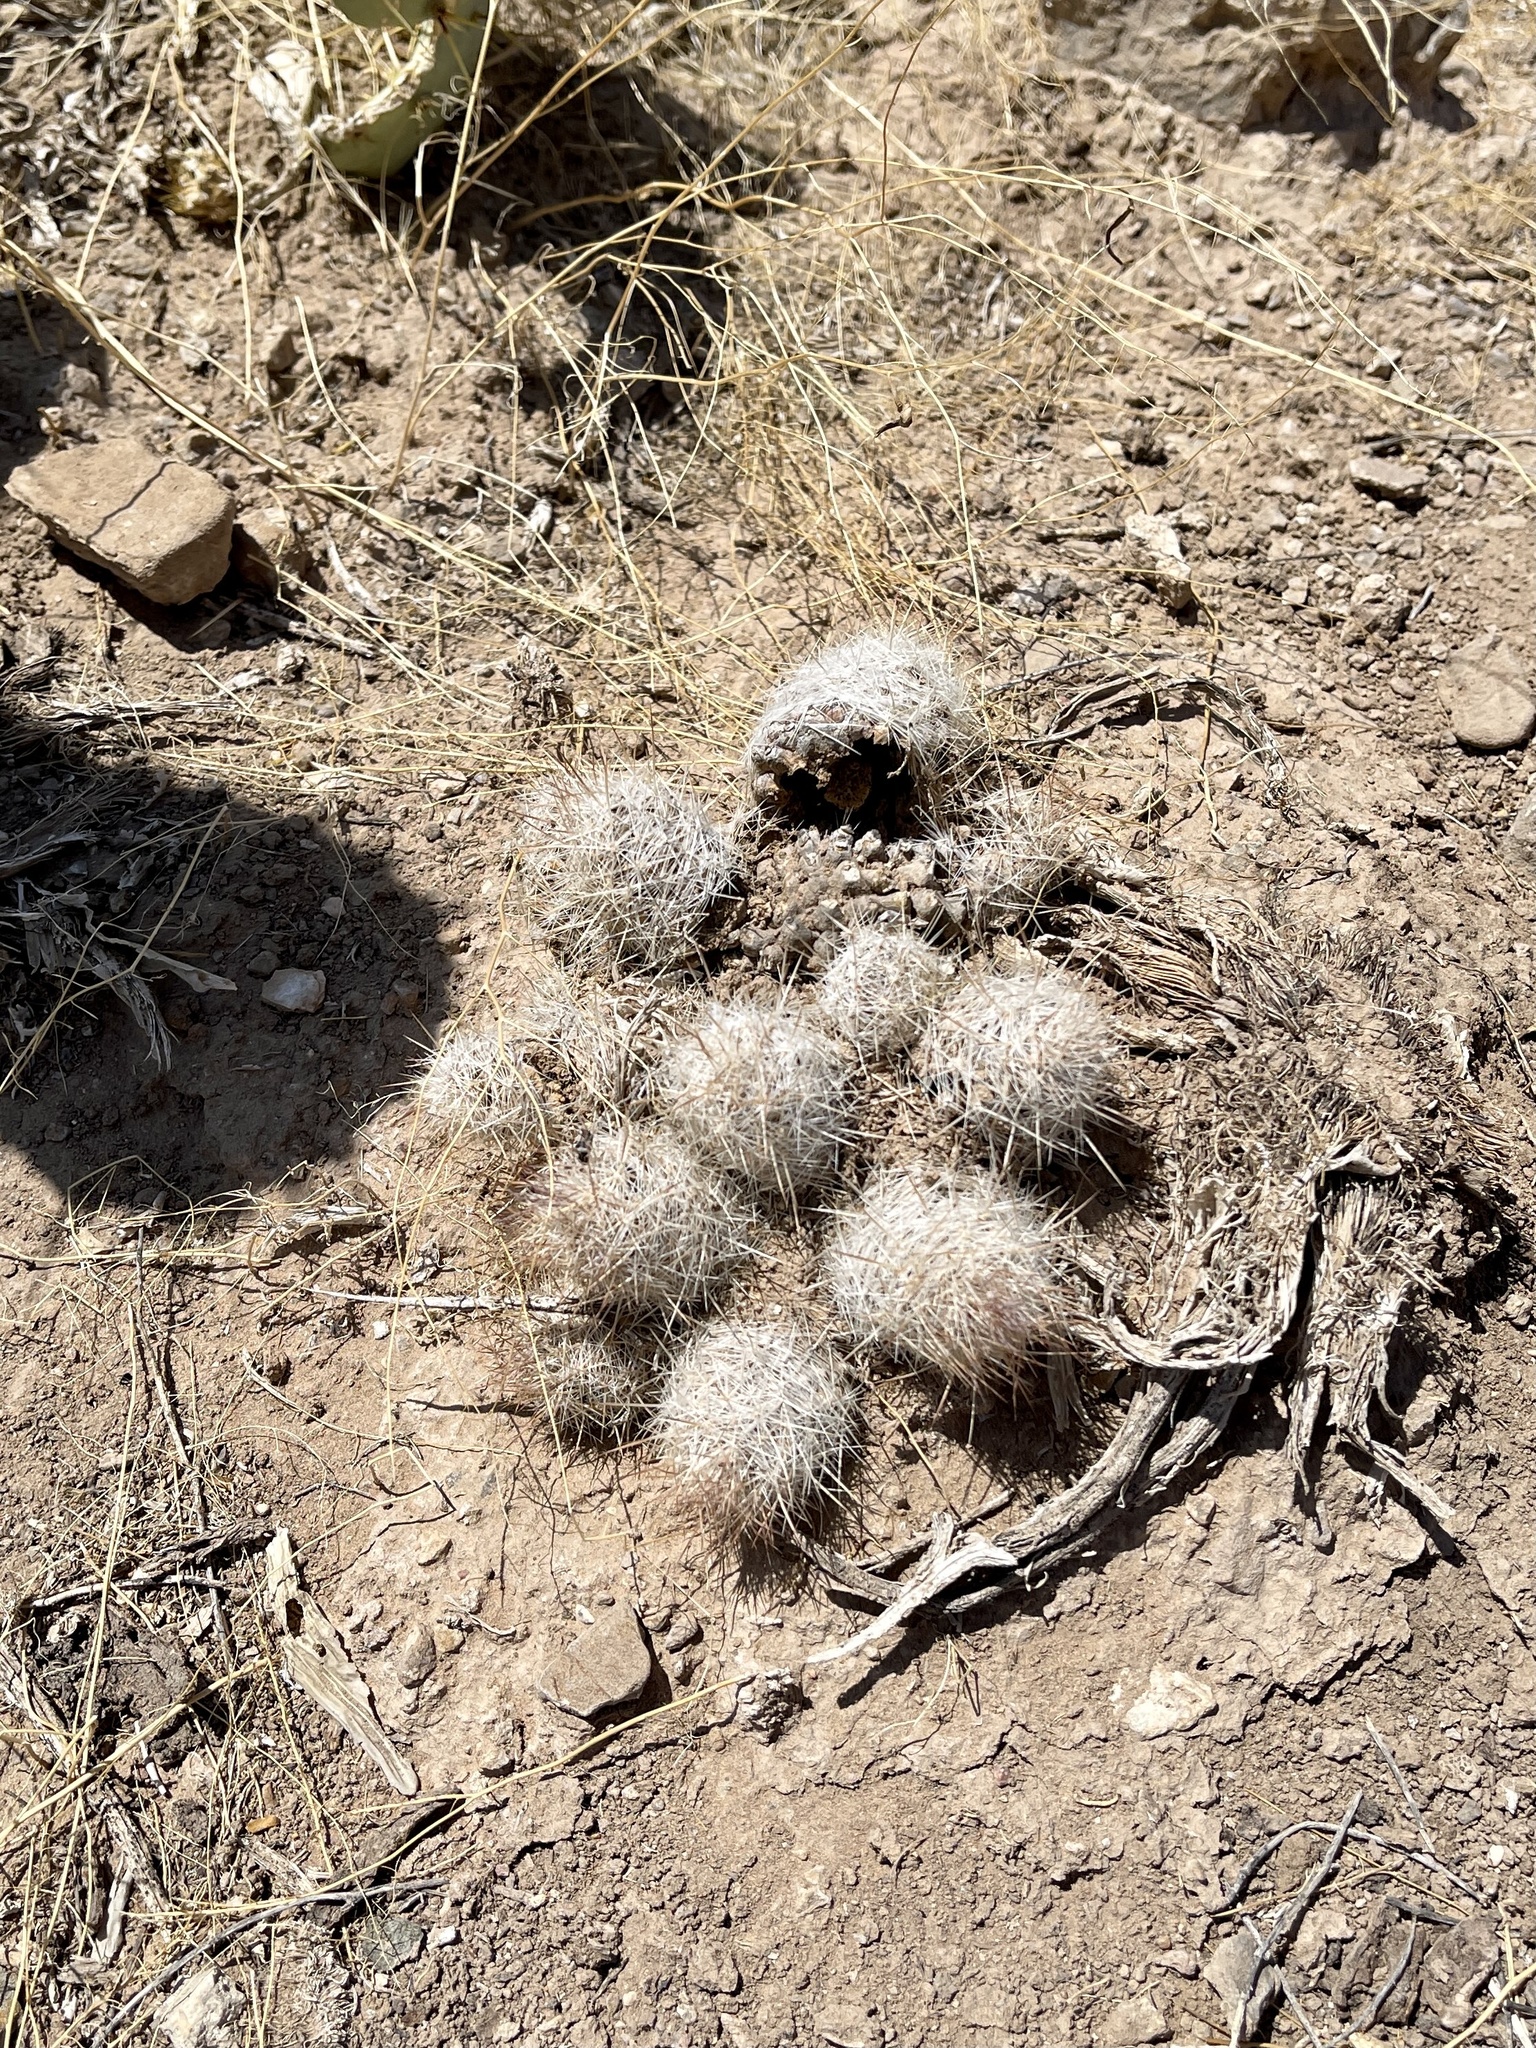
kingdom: Plantae
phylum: Tracheophyta
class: Magnoliopsida
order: Caryophyllales
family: Cactaceae
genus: Pelecyphora
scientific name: Pelecyphora tuberculosa
